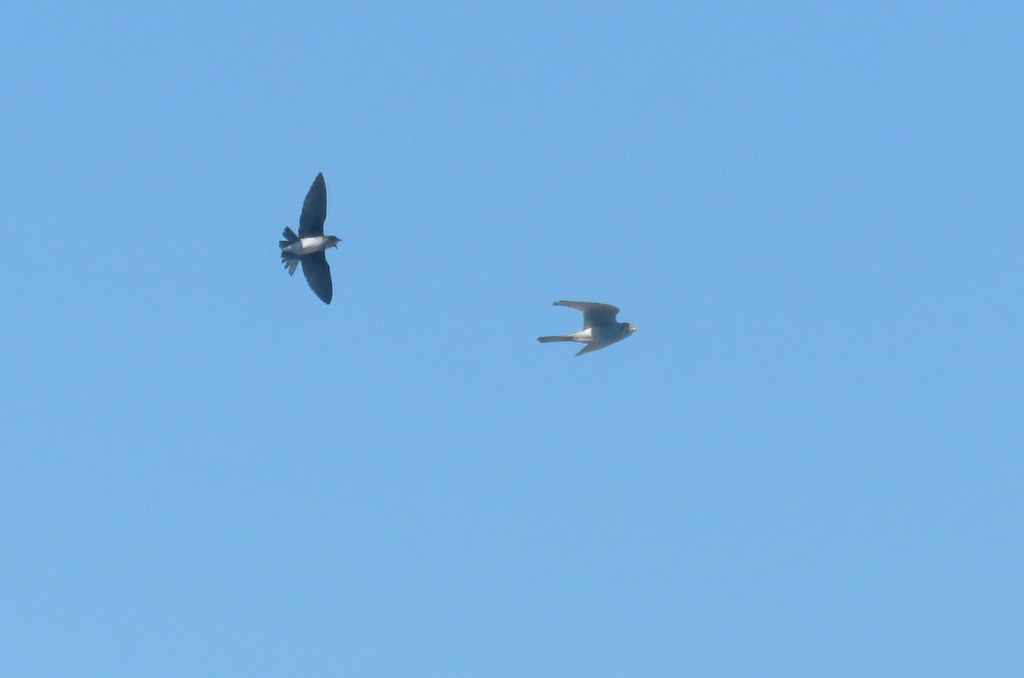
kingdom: Animalia
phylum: Chordata
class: Aves
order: Passeriformes
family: Hirundinidae
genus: Progne
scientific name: Progne chalybea
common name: Grey-breasted martin
